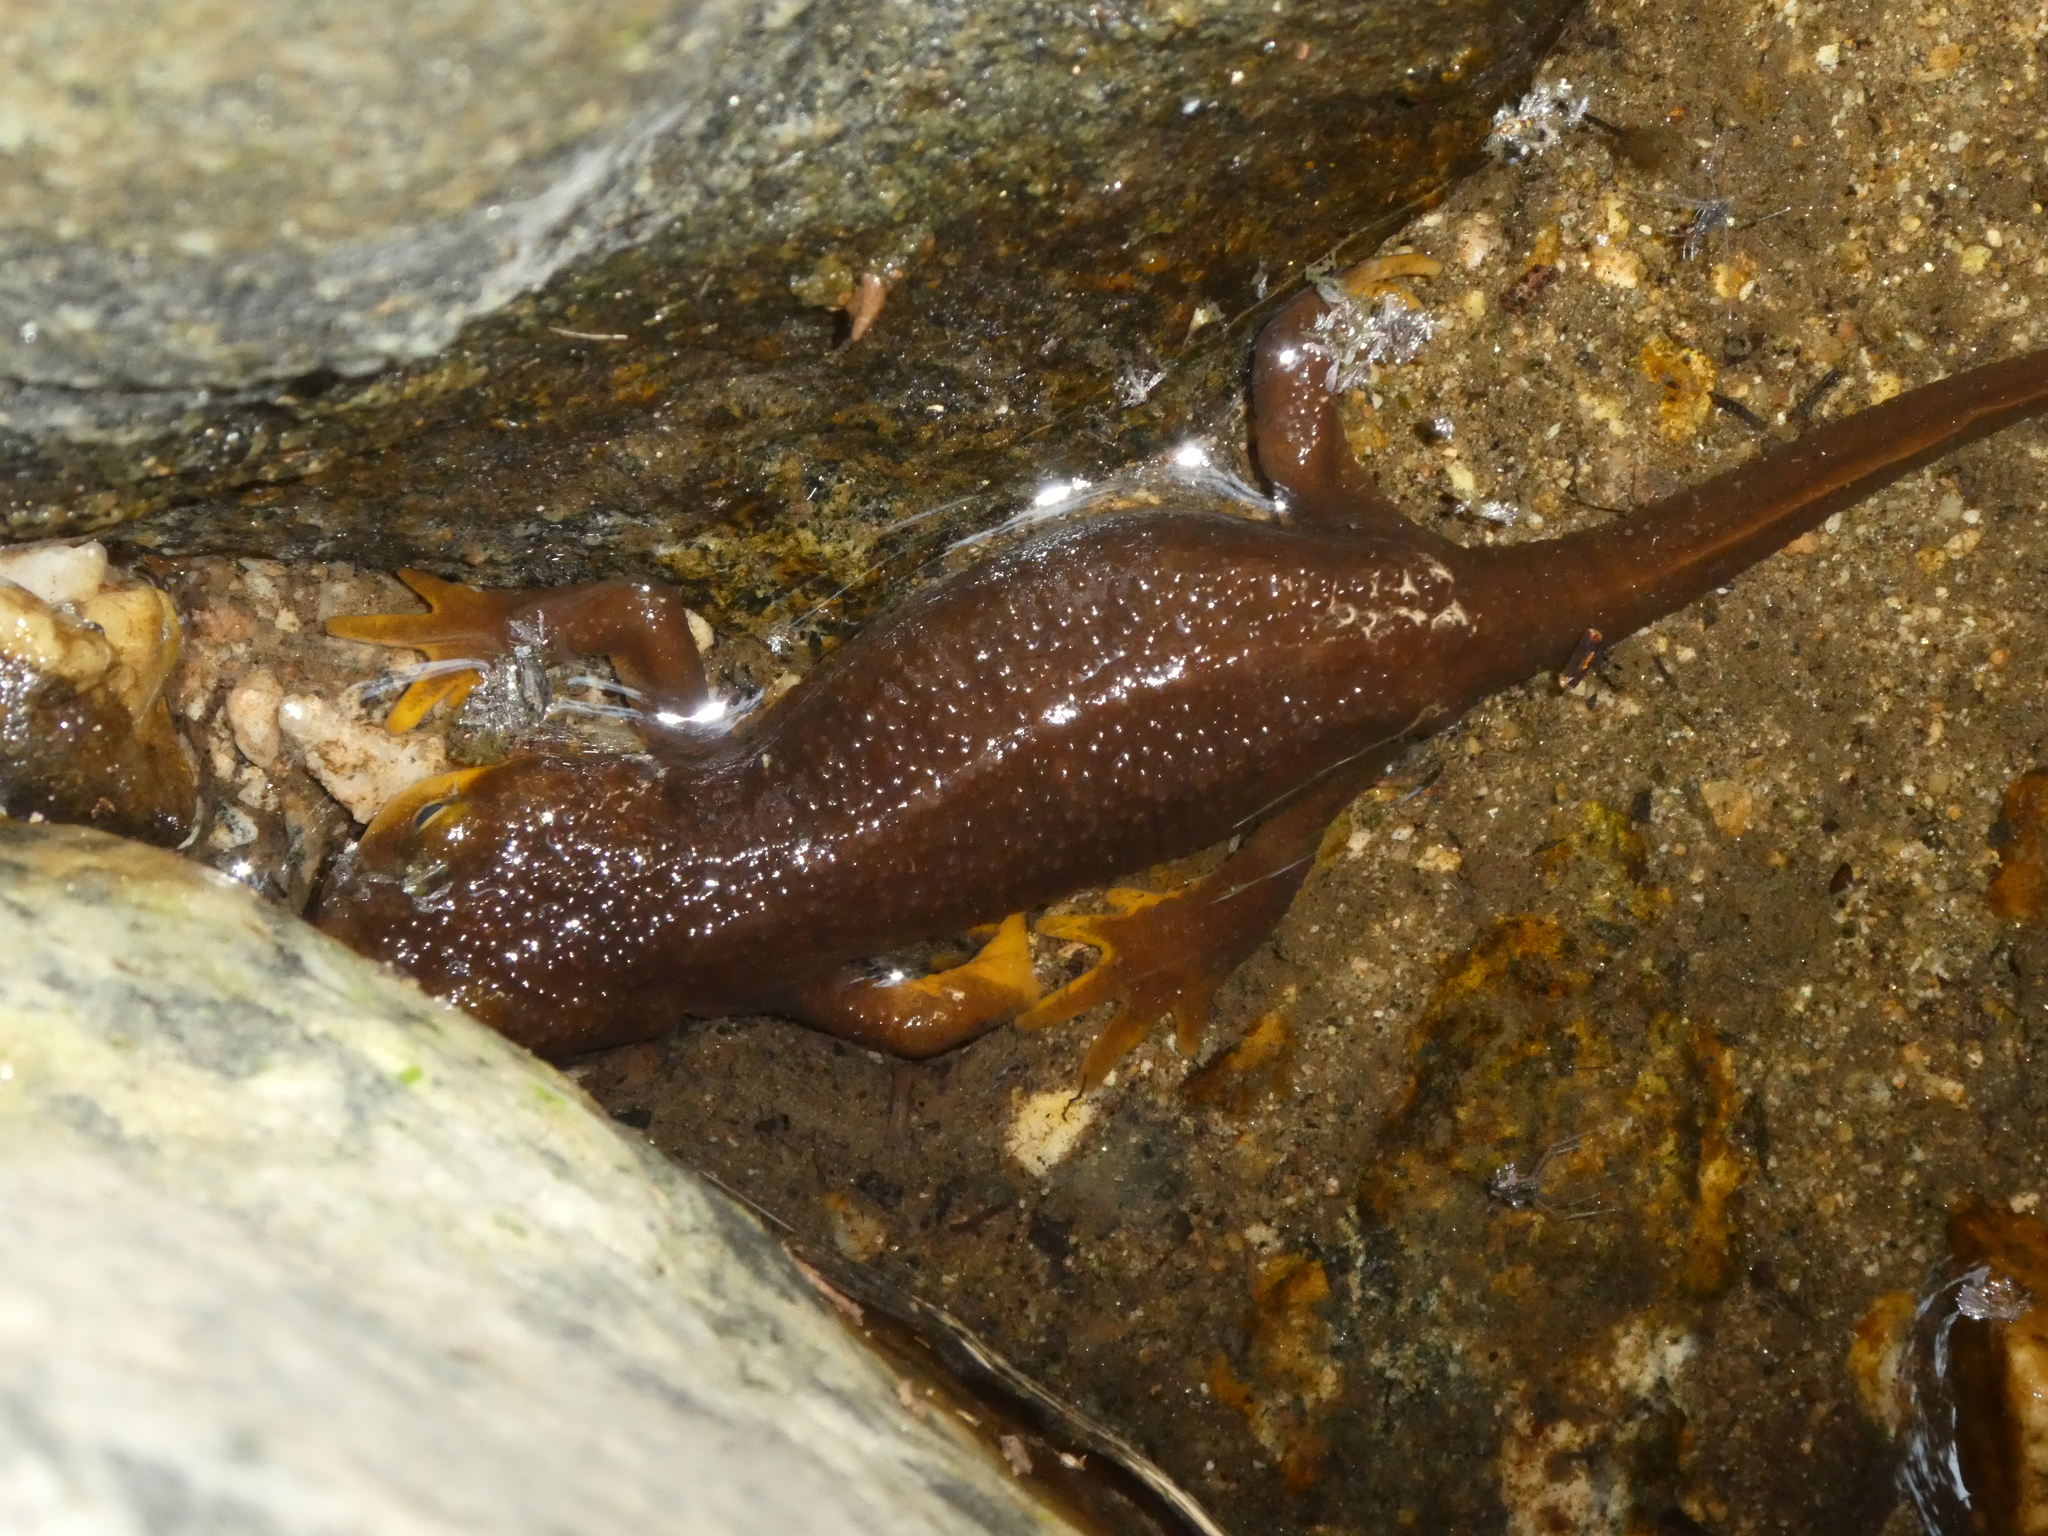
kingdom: Animalia
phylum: Chordata
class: Amphibia
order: Caudata
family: Salamandridae
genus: Taricha
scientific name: Taricha torosa
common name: California newt
